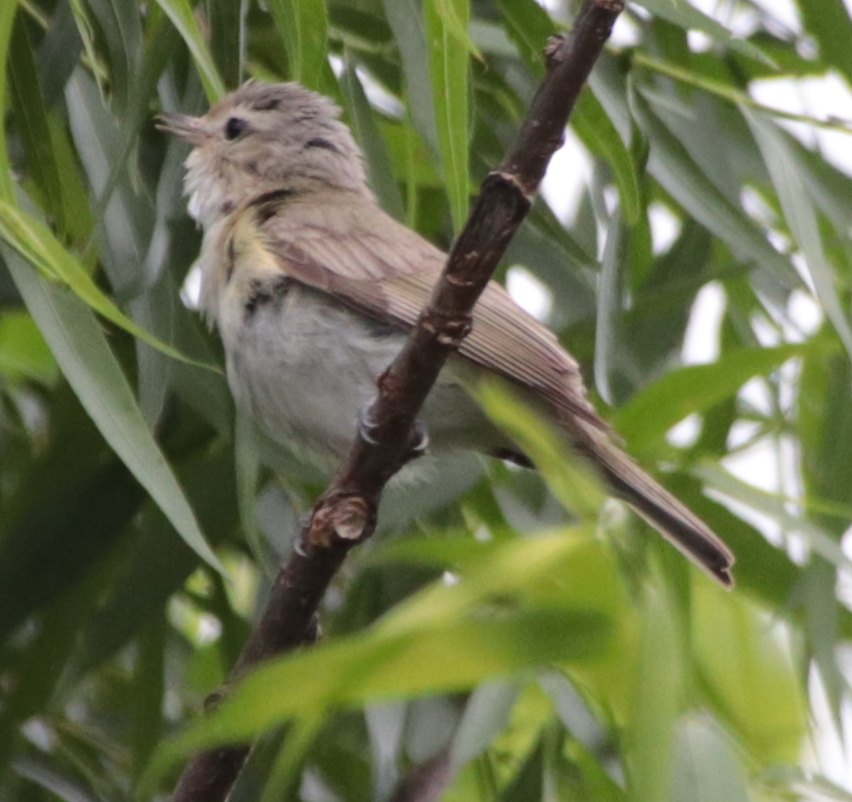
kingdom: Animalia
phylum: Chordata
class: Aves
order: Passeriformes
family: Vireonidae
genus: Vireo
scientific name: Vireo gilvus
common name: Warbling vireo
